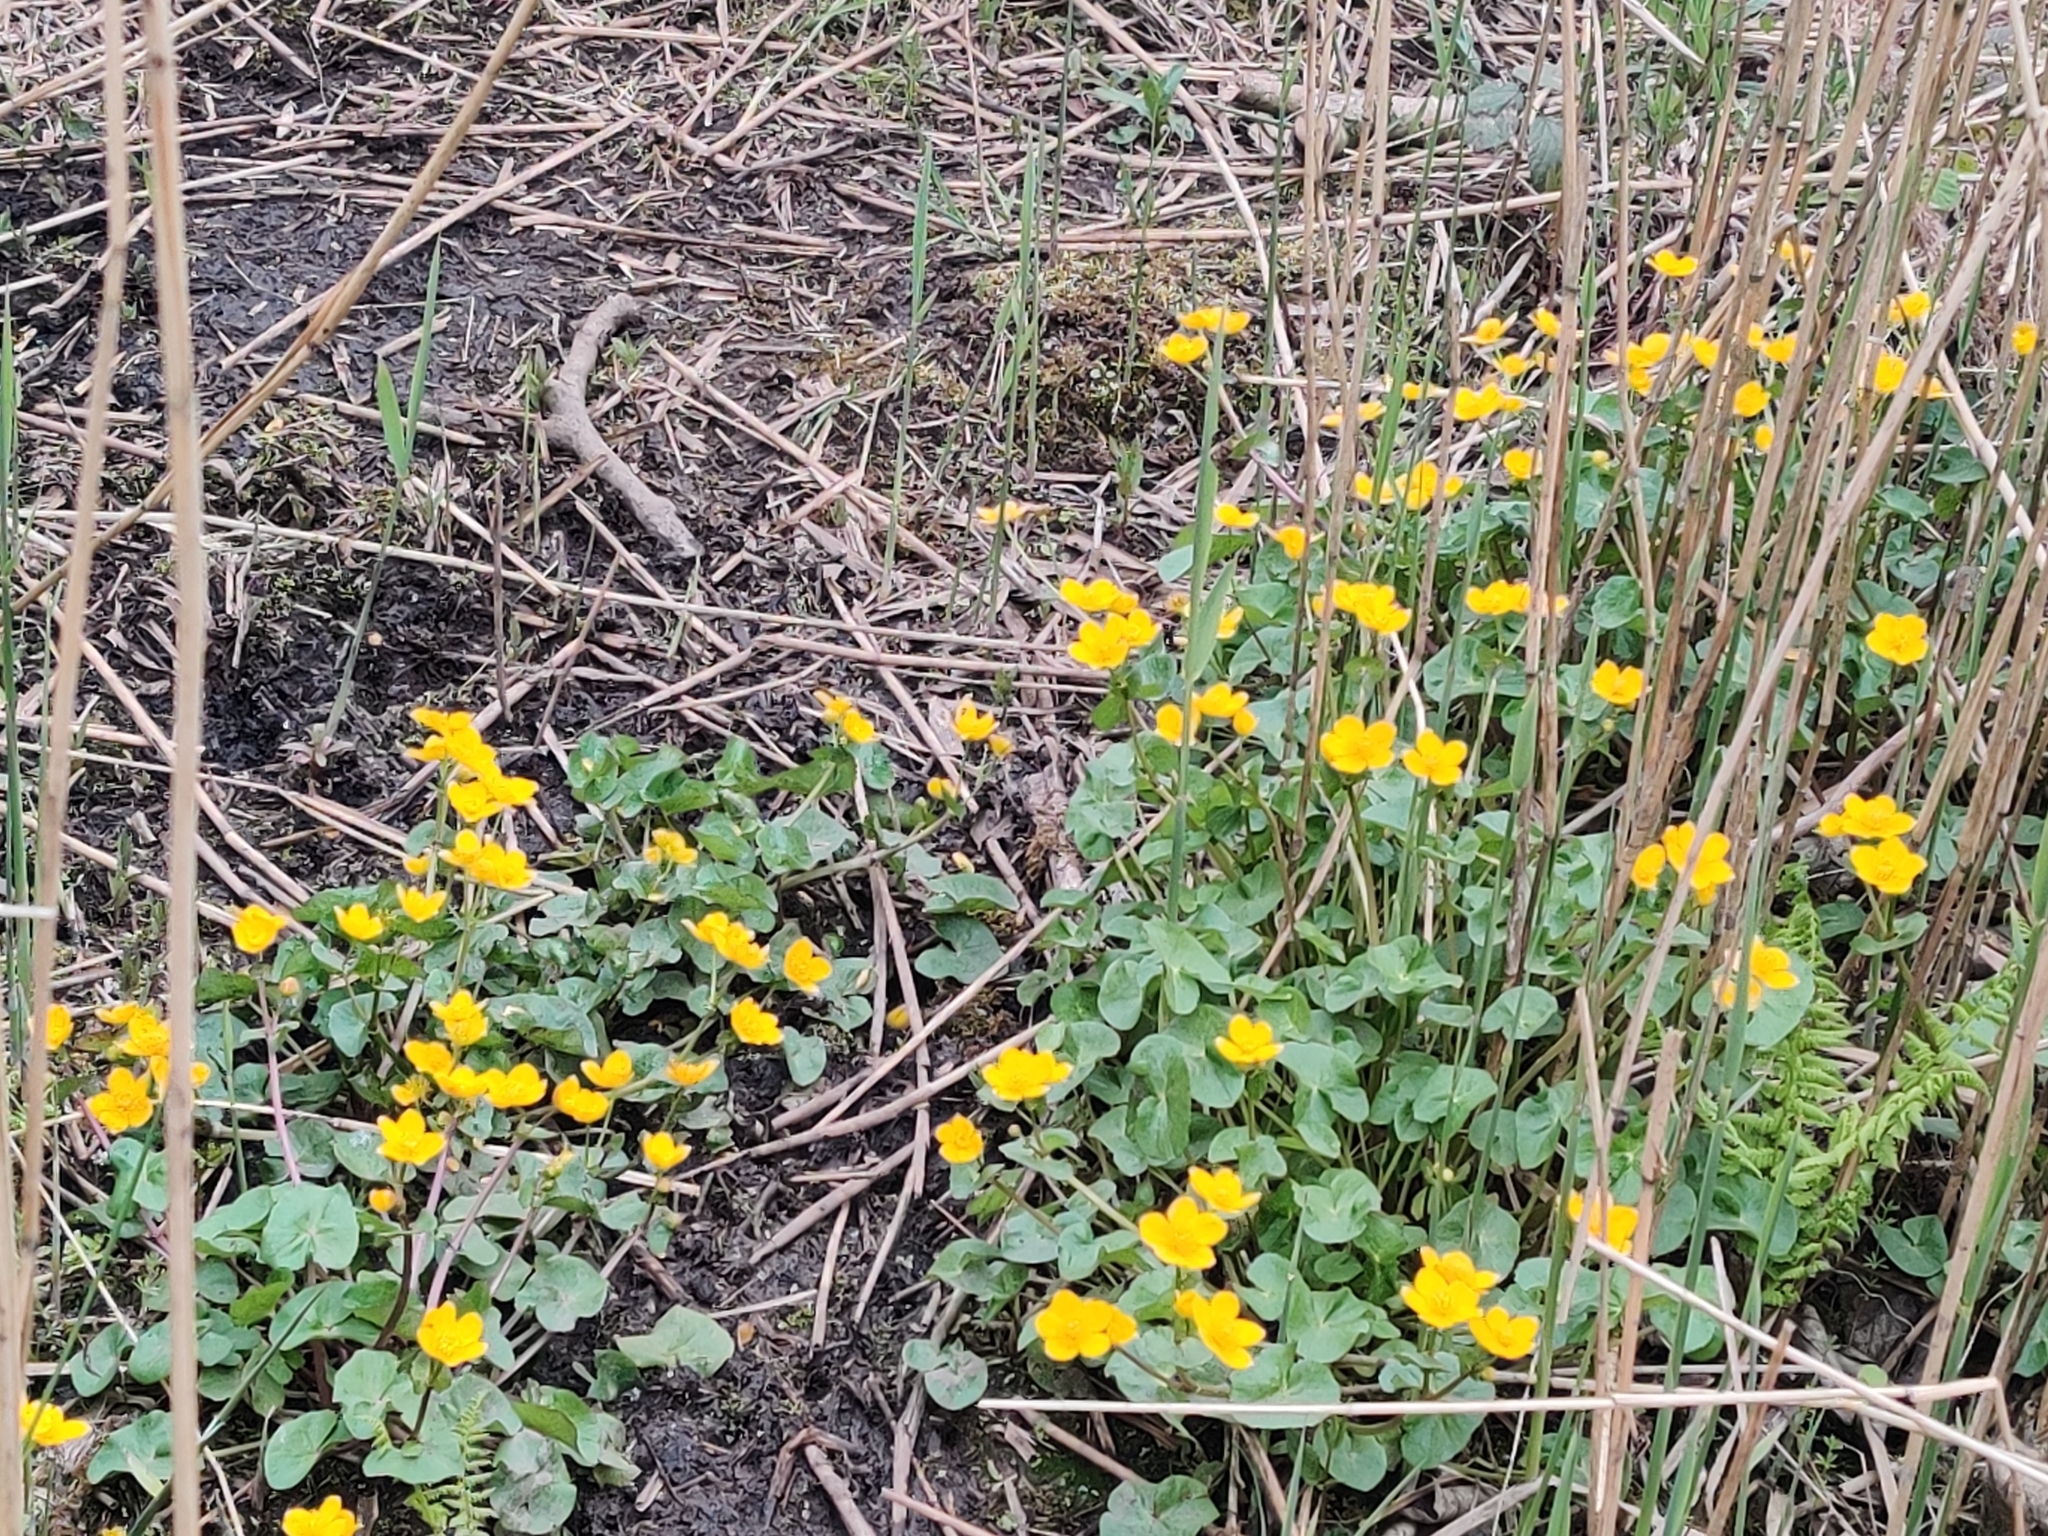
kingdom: Plantae
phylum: Tracheophyta
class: Magnoliopsida
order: Ranunculales
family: Ranunculaceae
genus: Caltha
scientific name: Caltha palustris
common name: Marsh marigold
